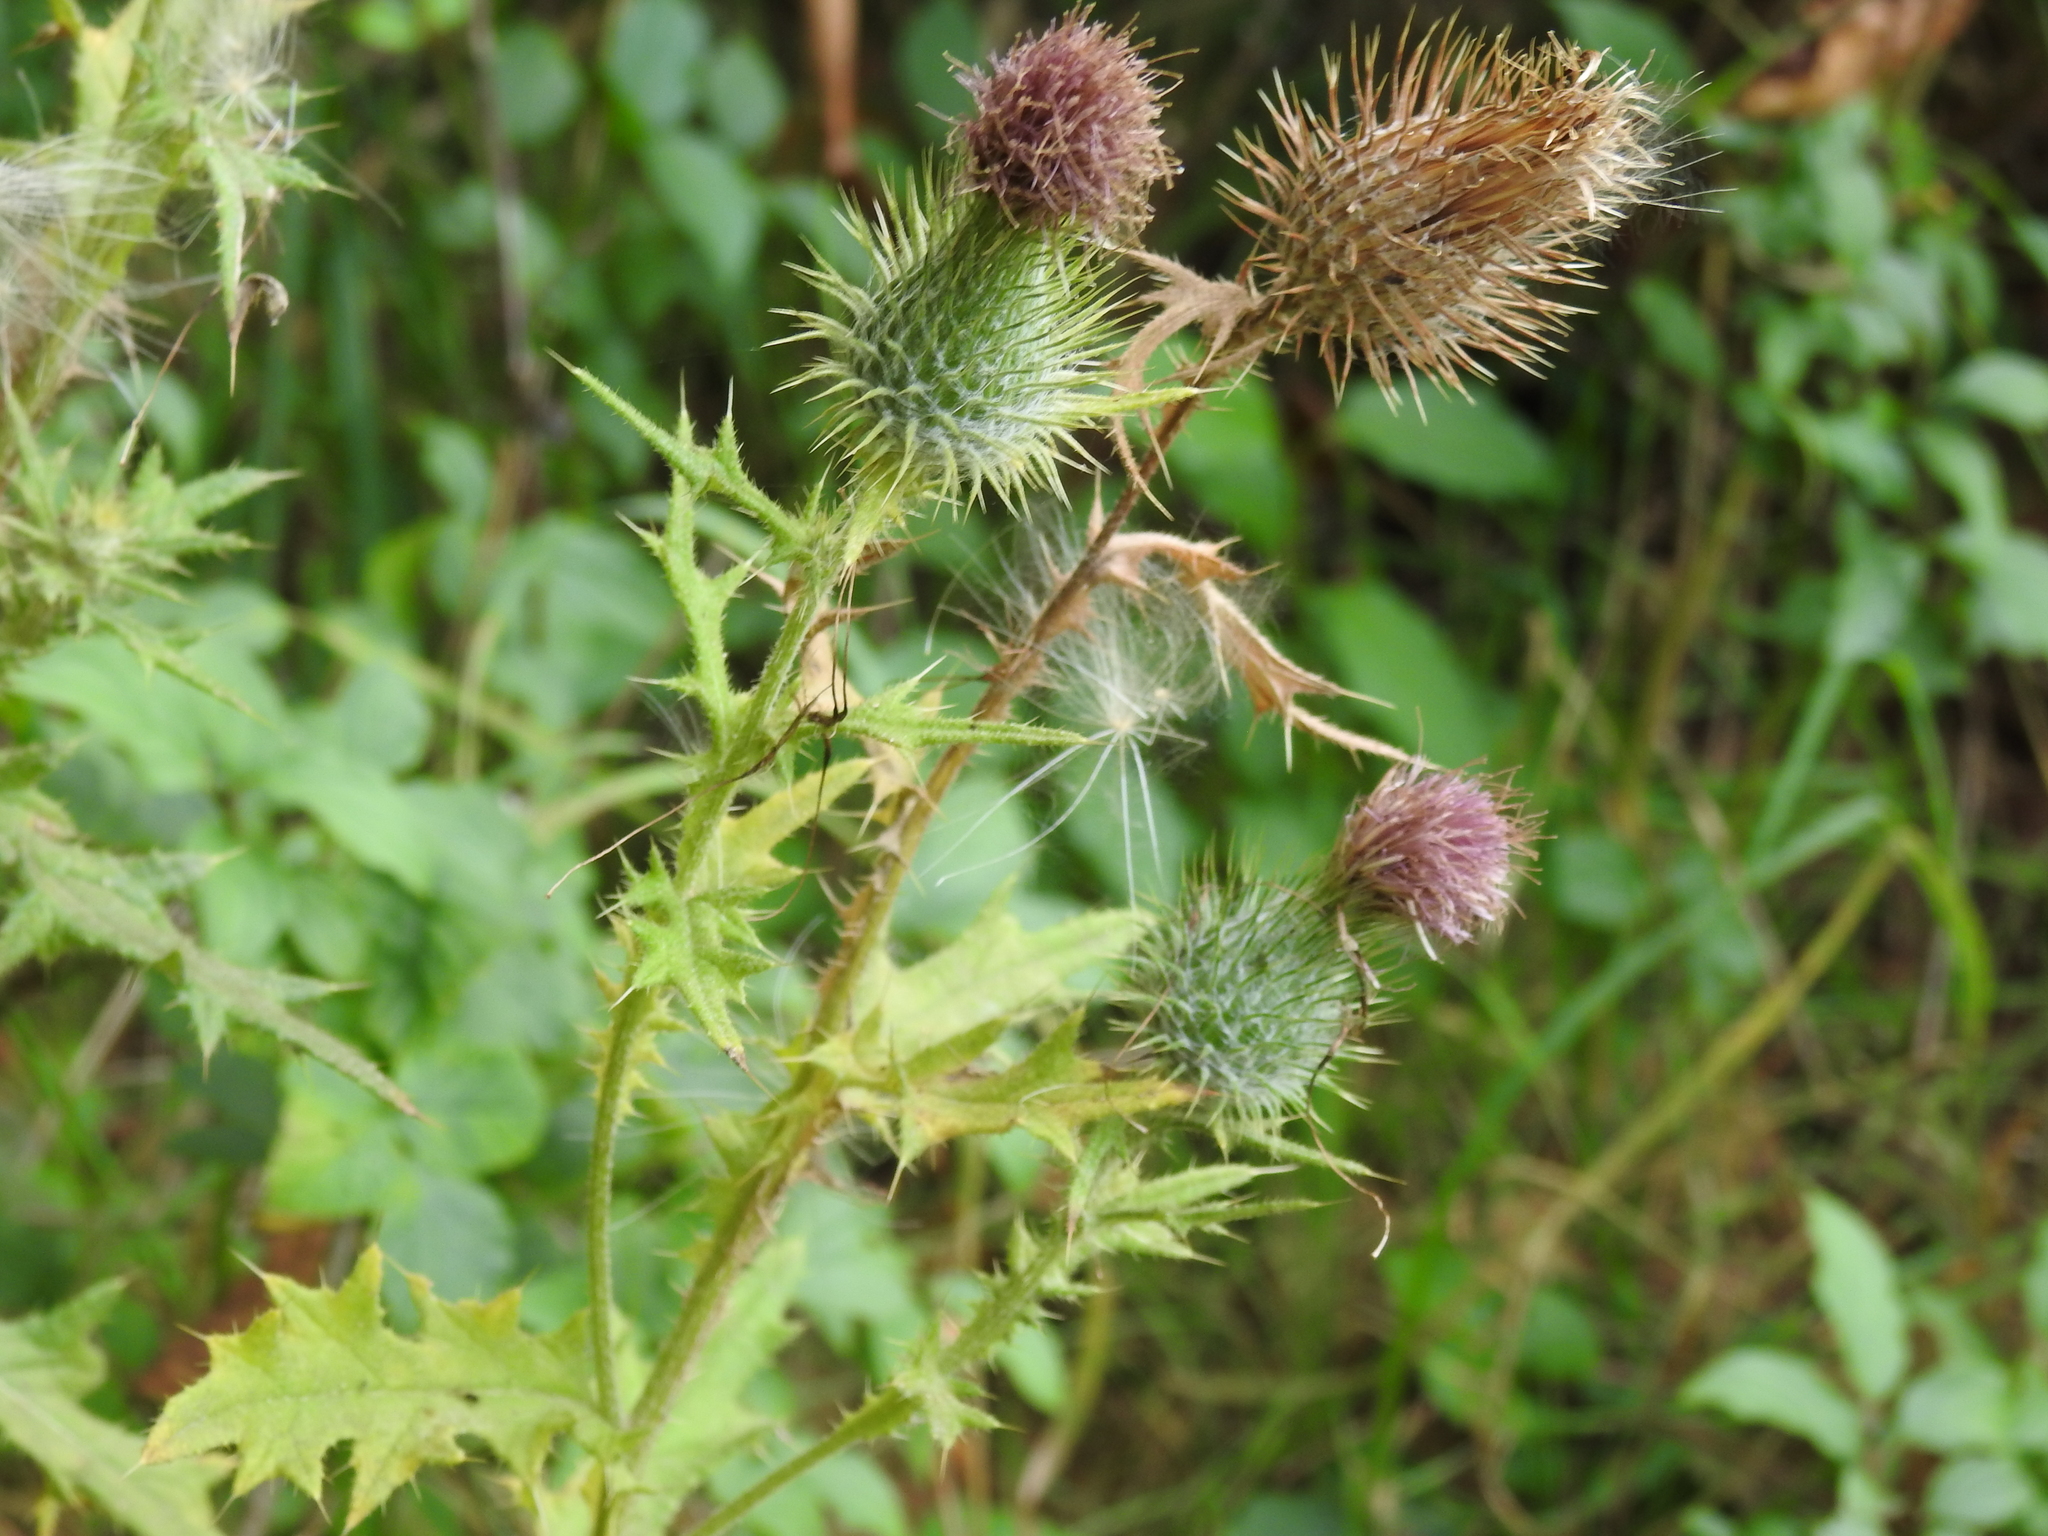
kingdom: Plantae
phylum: Tracheophyta
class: Magnoliopsida
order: Asterales
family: Asteraceae
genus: Cirsium
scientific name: Cirsium vulgare
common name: Bull thistle
